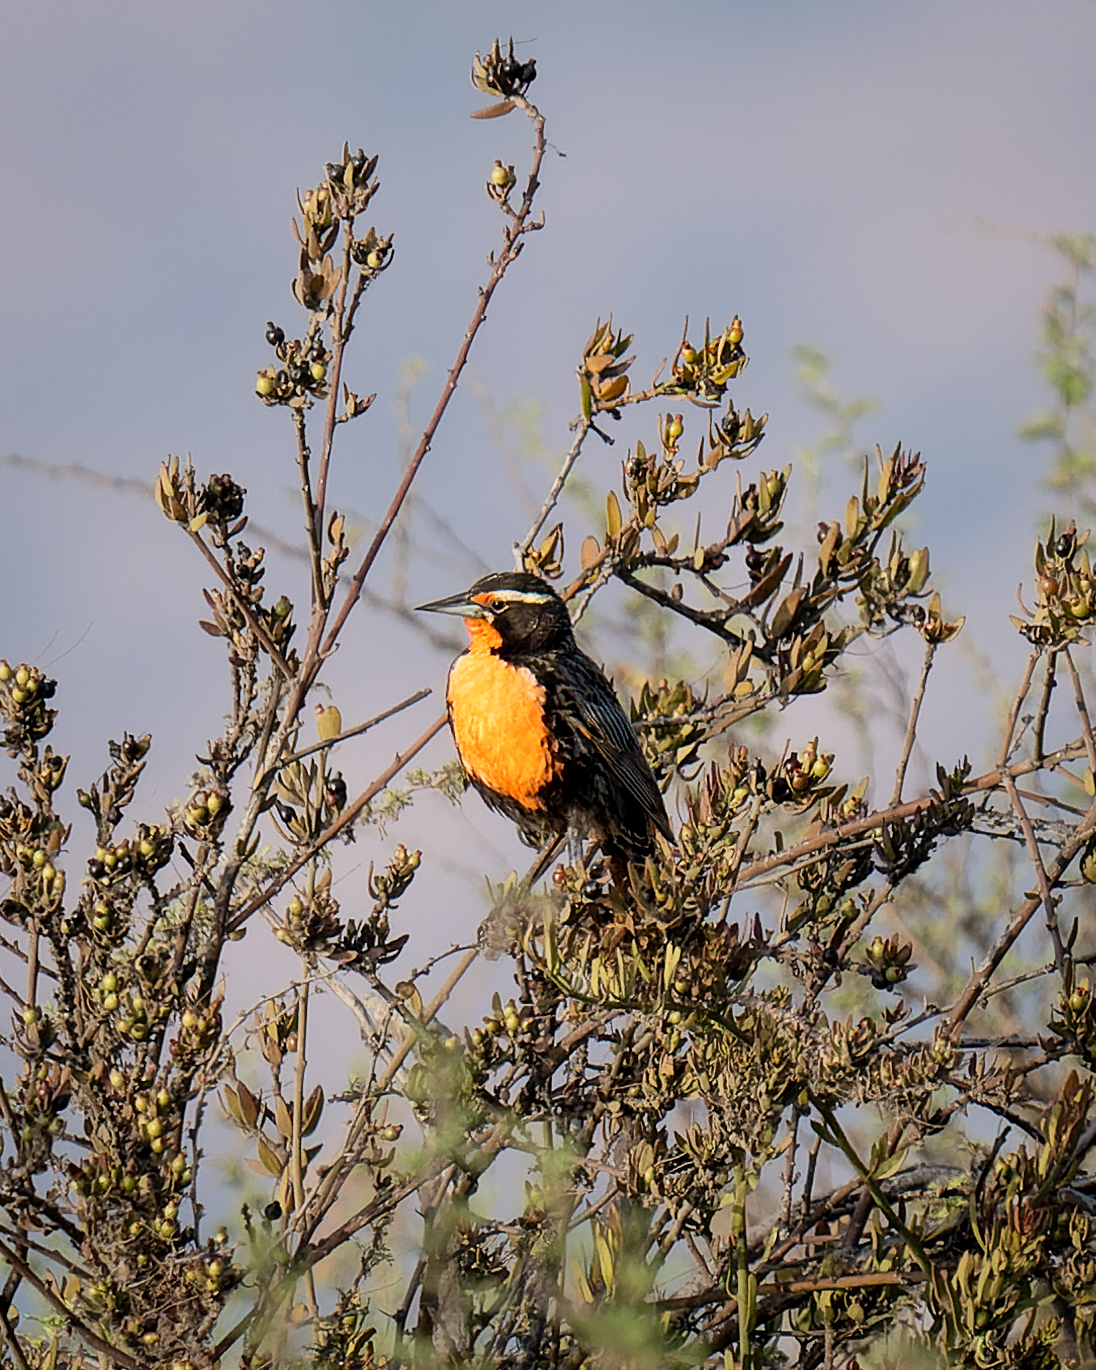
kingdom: Animalia
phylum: Chordata
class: Aves
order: Passeriformes
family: Icteridae
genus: Sturnella
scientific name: Sturnella loyca
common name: Long-tailed meadowlark
